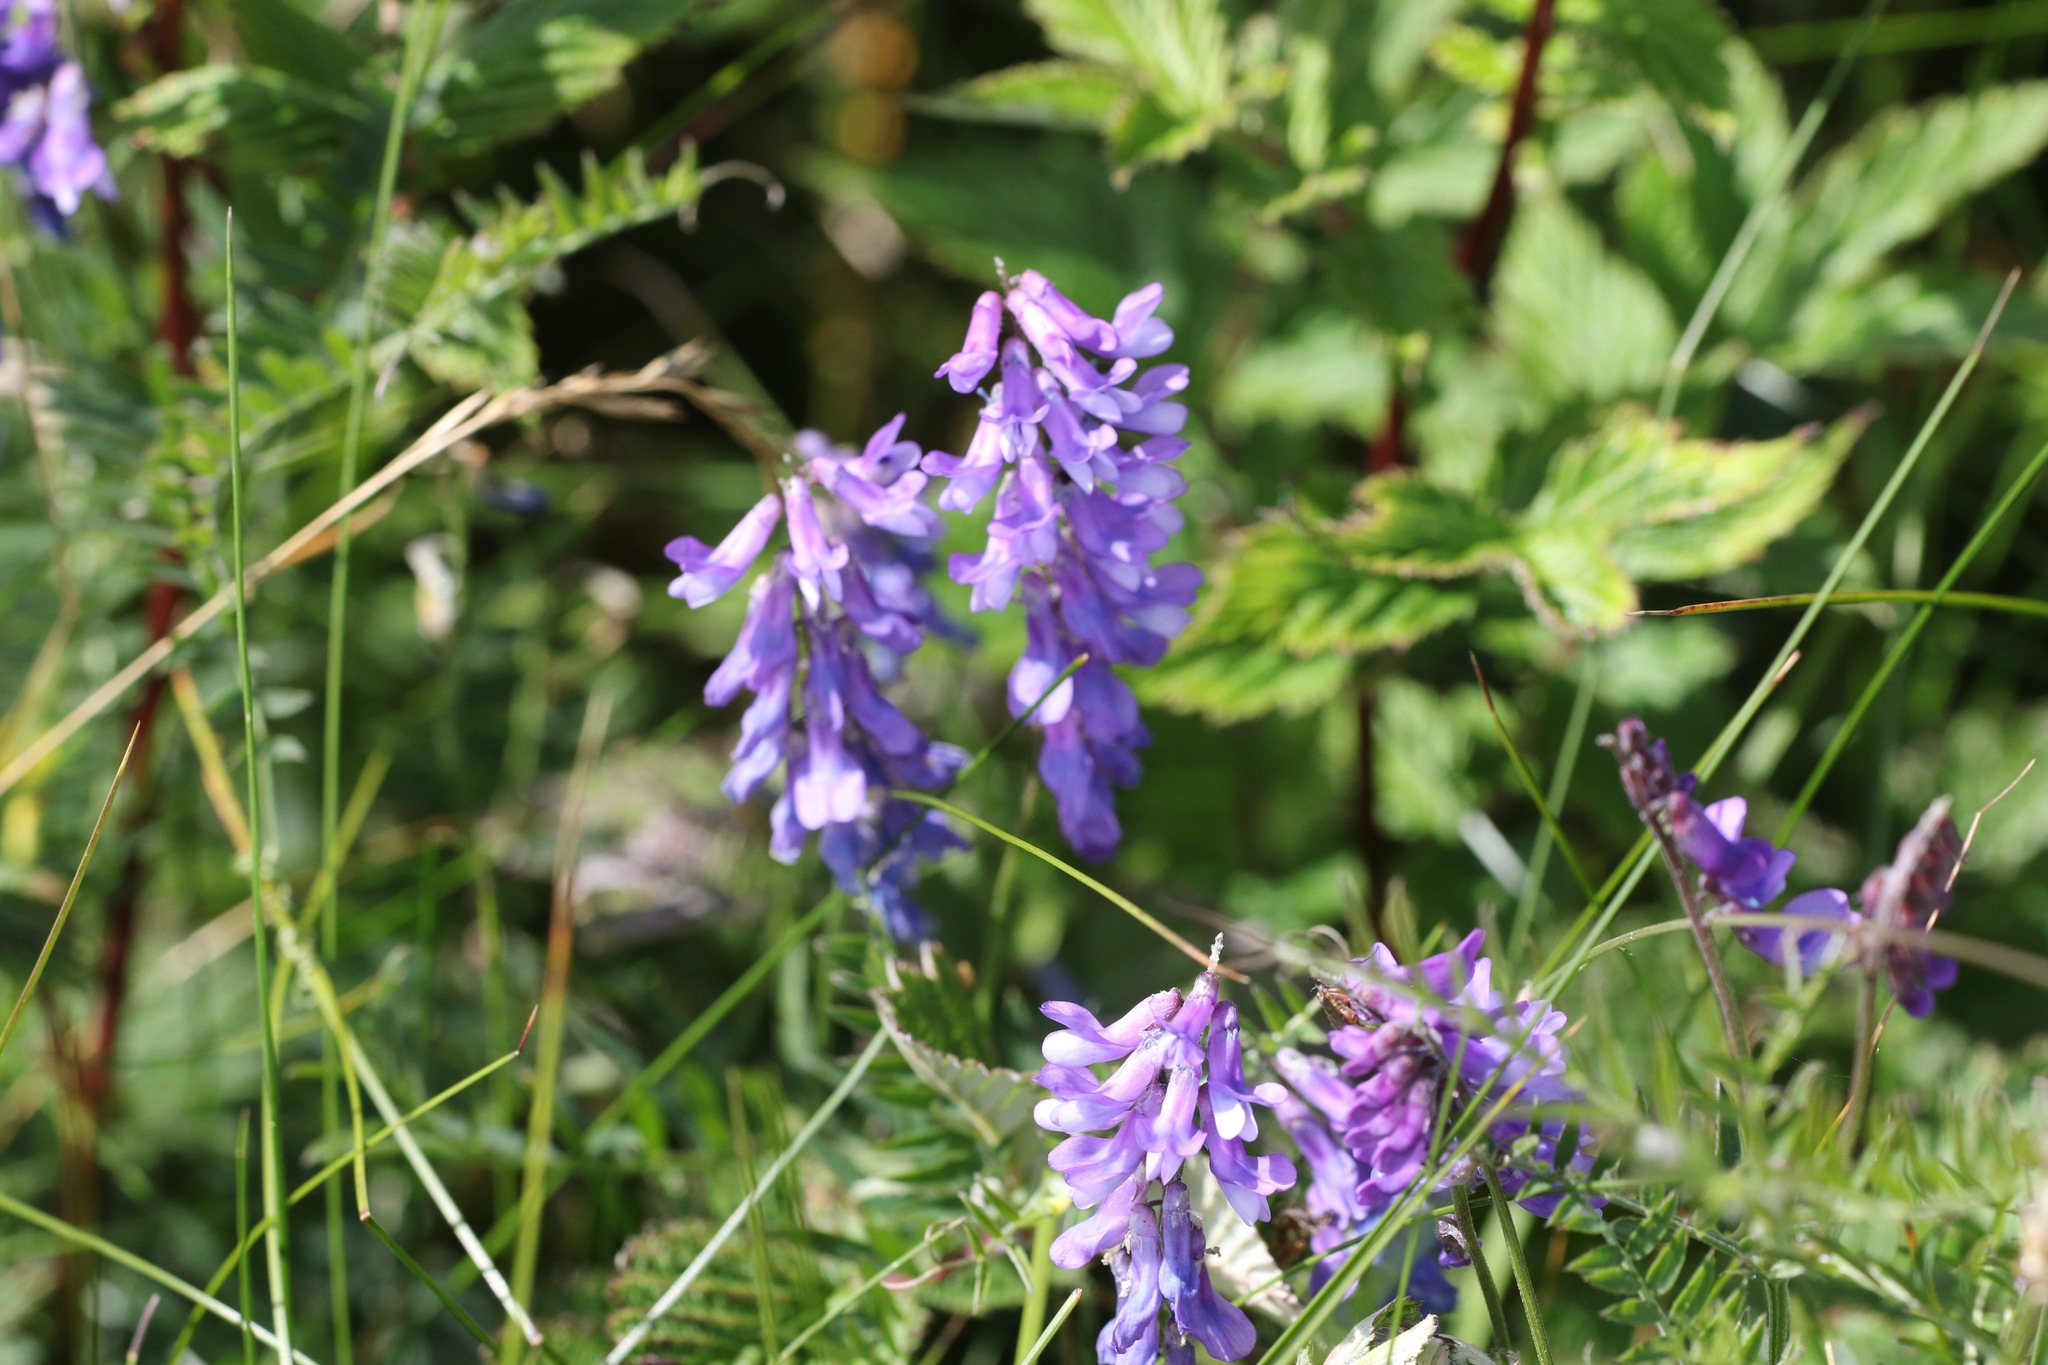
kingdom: Plantae
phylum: Tracheophyta
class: Magnoliopsida
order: Fabales
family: Fabaceae
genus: Vicia
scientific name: Vicia cracca
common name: Bird vetch
